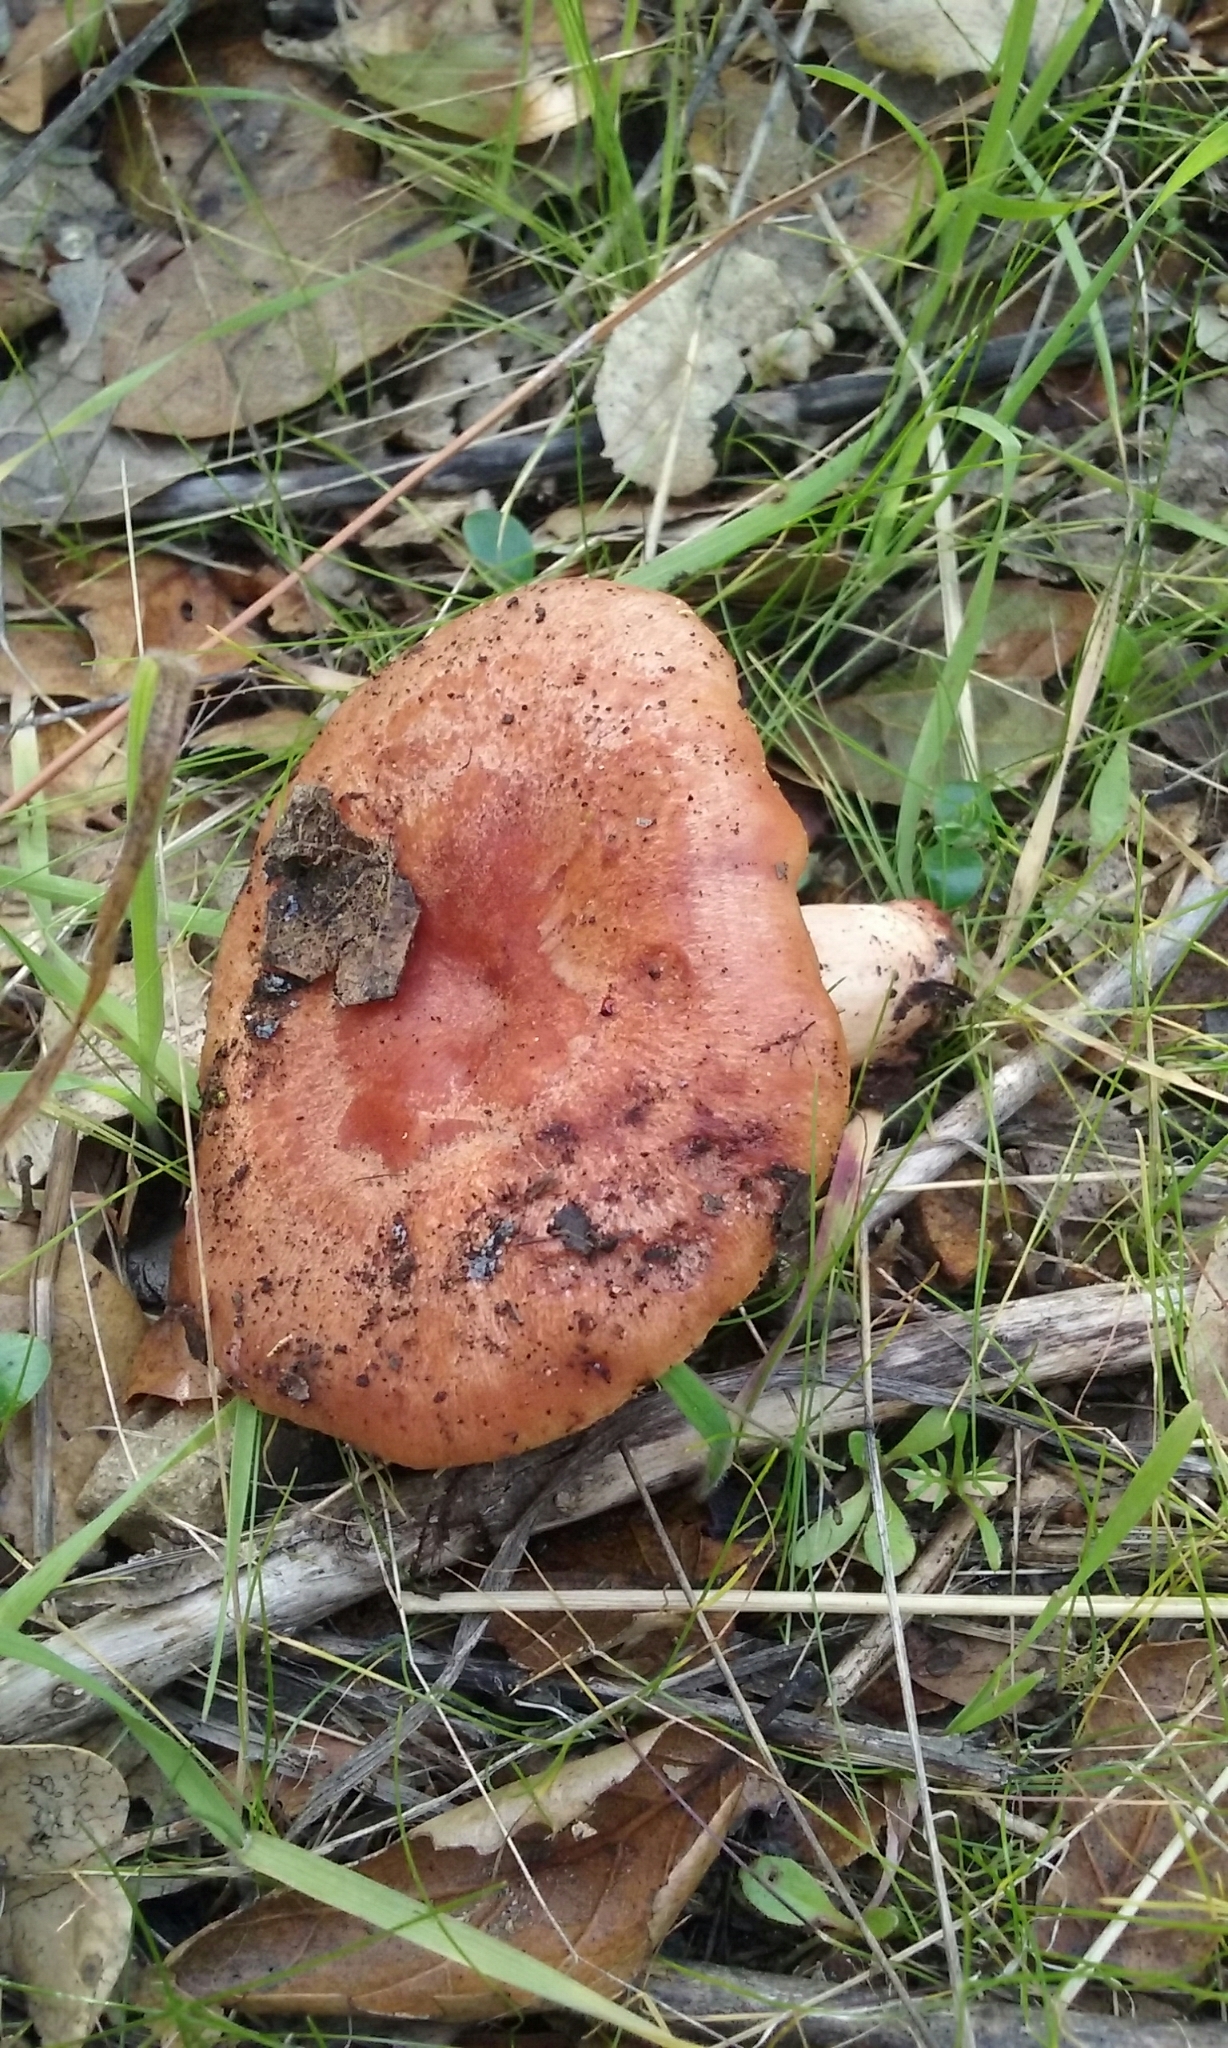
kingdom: Fungi
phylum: Basidiomycota
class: Agaricomycetes
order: Russulales
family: Russulaceae
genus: Lactarius
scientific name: Lactarius xanthogalactus
